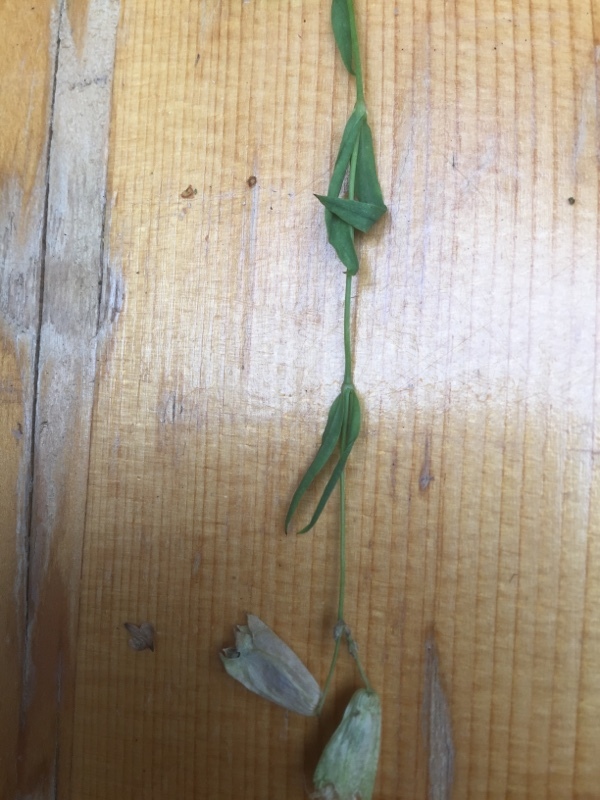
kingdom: Plantae
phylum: Tracheophyta
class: Magnoliopsida
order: Caryophyllales
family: Caryophyllaceae
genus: Silene
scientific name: Silene vulgaris
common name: Bladder campion
